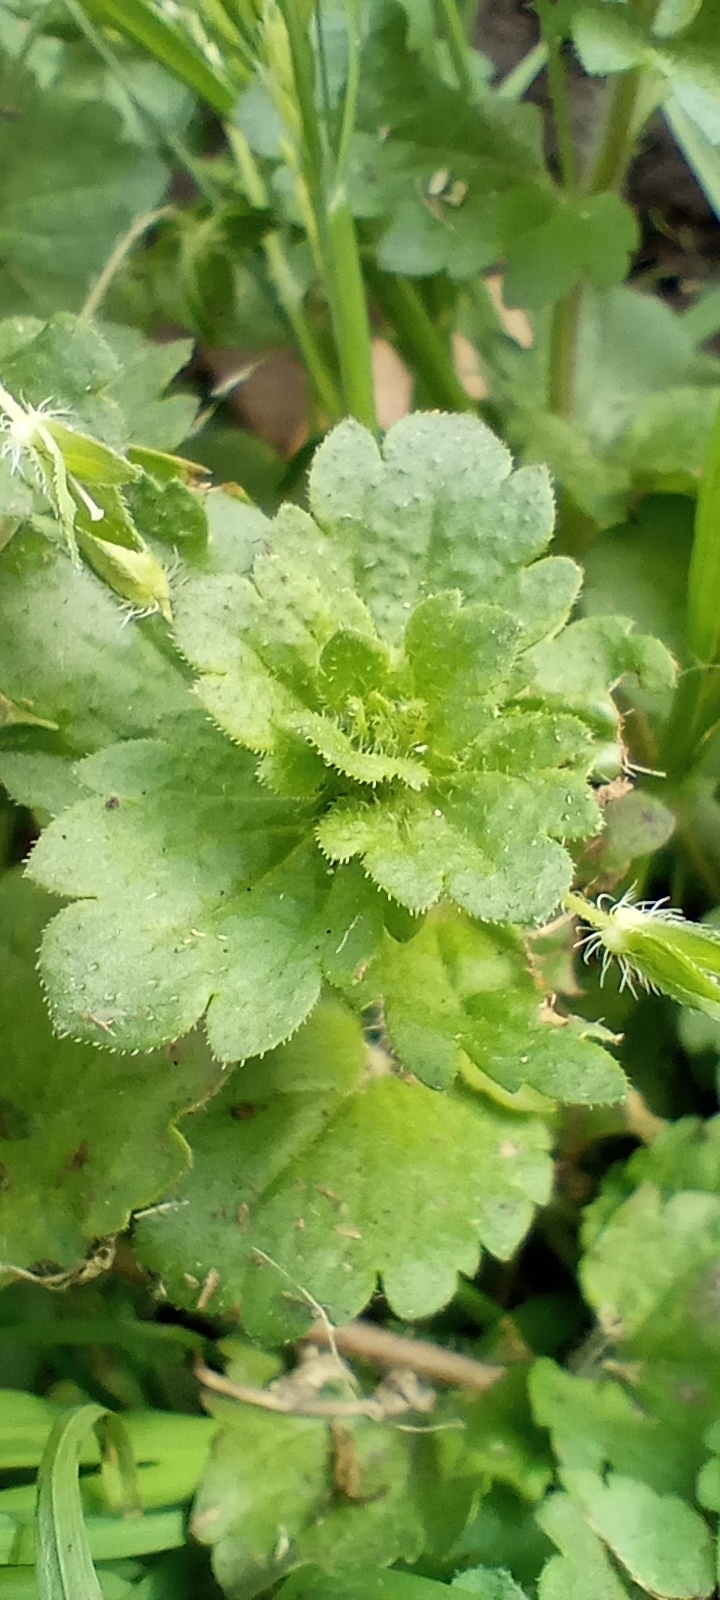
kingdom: Plantae
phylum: Tracheophyta
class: Magnoliopsida
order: Lamiales
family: Plantaginaceae
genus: Veronica
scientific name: Veronica persica
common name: Common field-speedwell
